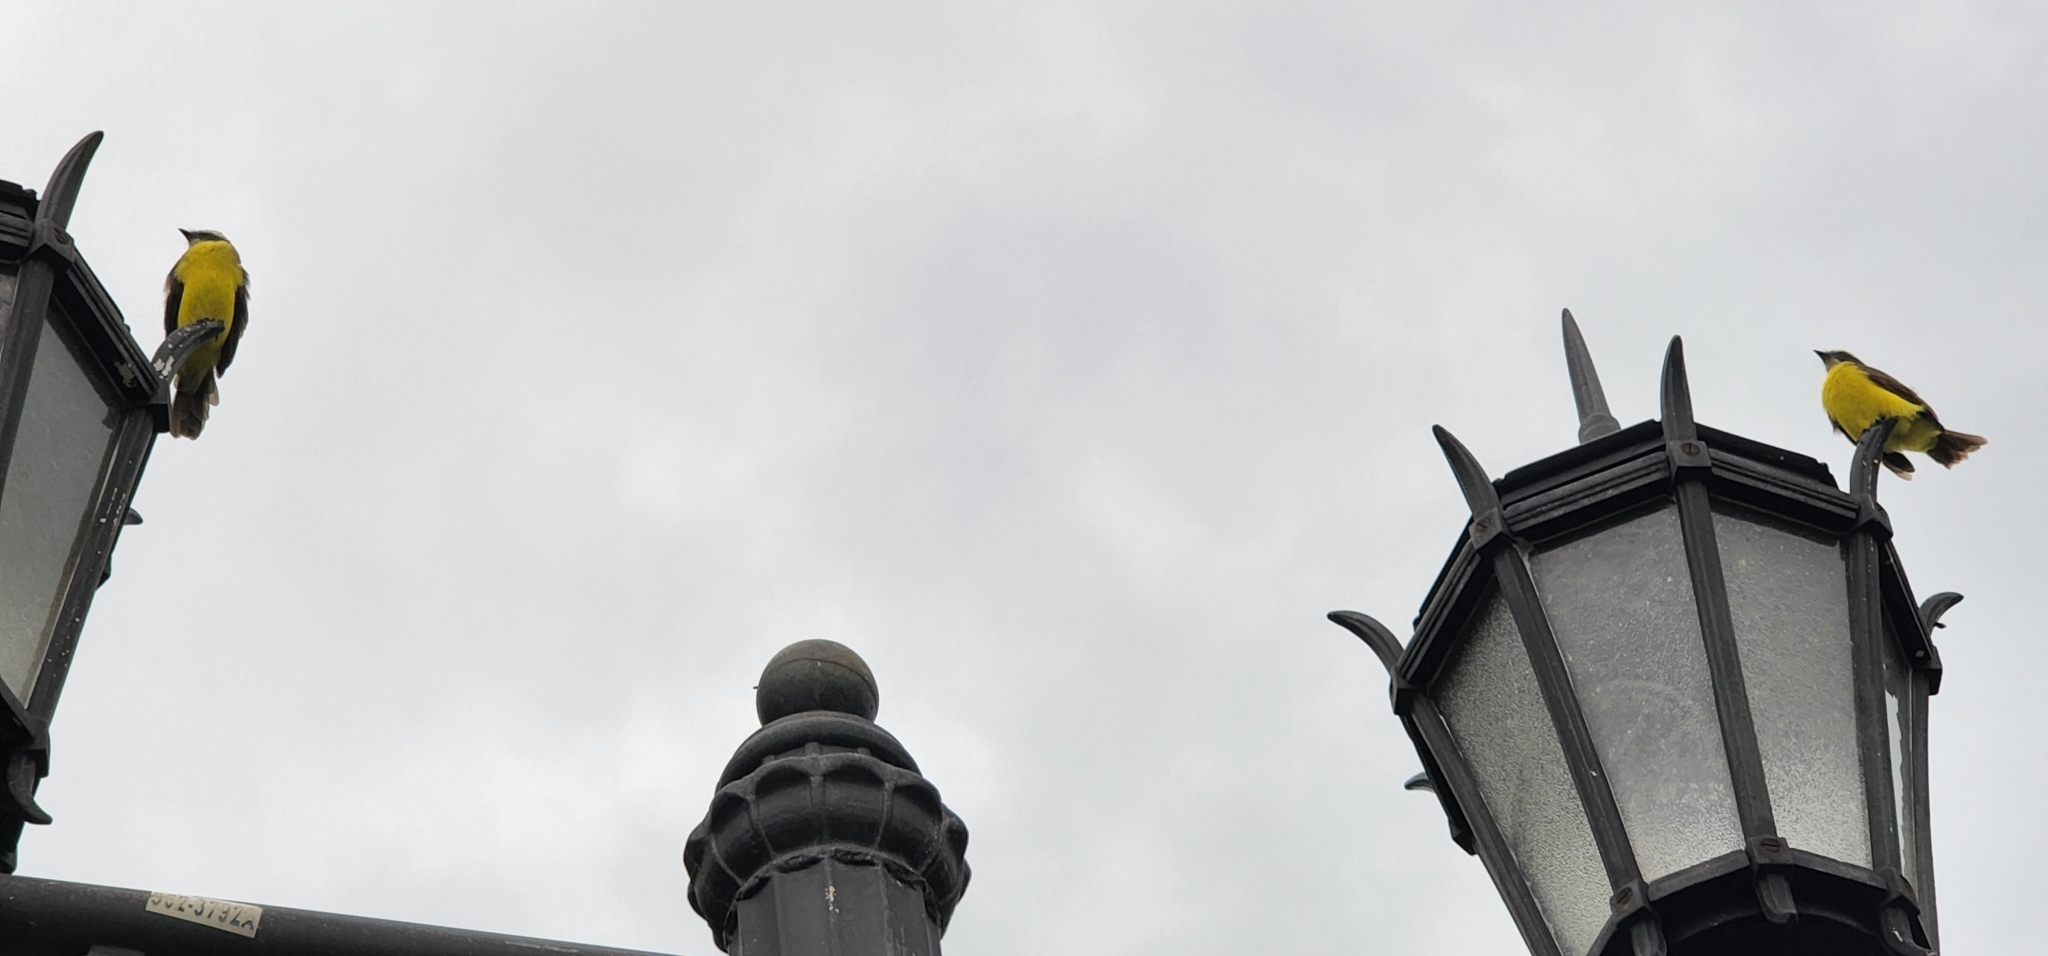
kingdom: Animalia
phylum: Chordata
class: Aves
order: Passeriformes
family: Tyrannidae
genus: Myiozetetes
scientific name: Myiozetetes similis
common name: Social flycatcher
